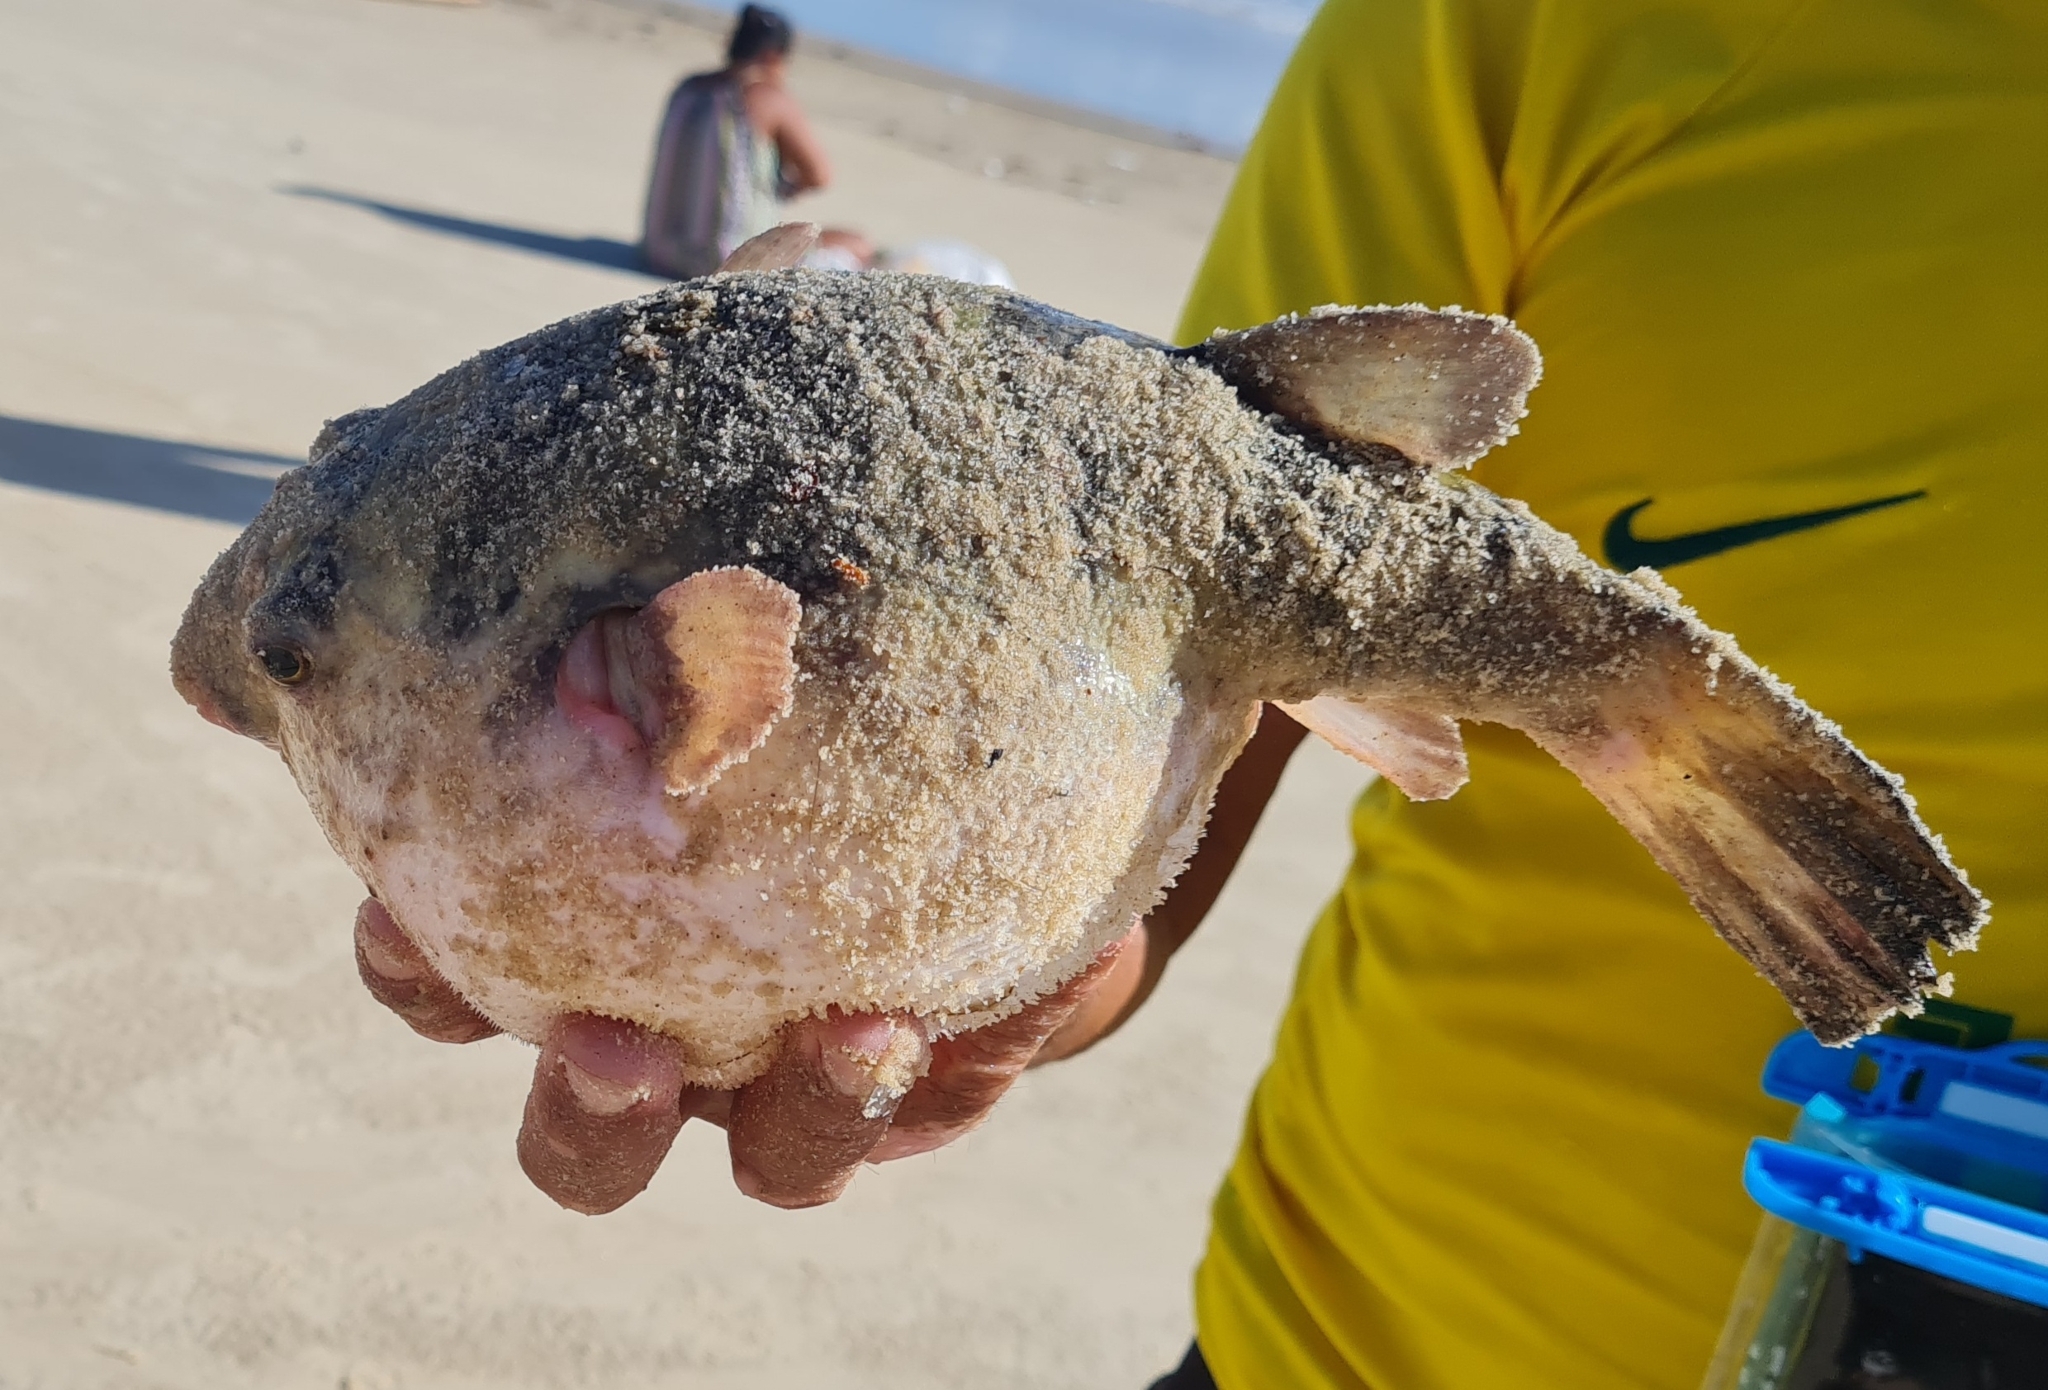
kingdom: Animalia
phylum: Chordata
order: Tetraodontiformes
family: Tetraodontidae
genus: Sphoeroides
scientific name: Sphoeroides
